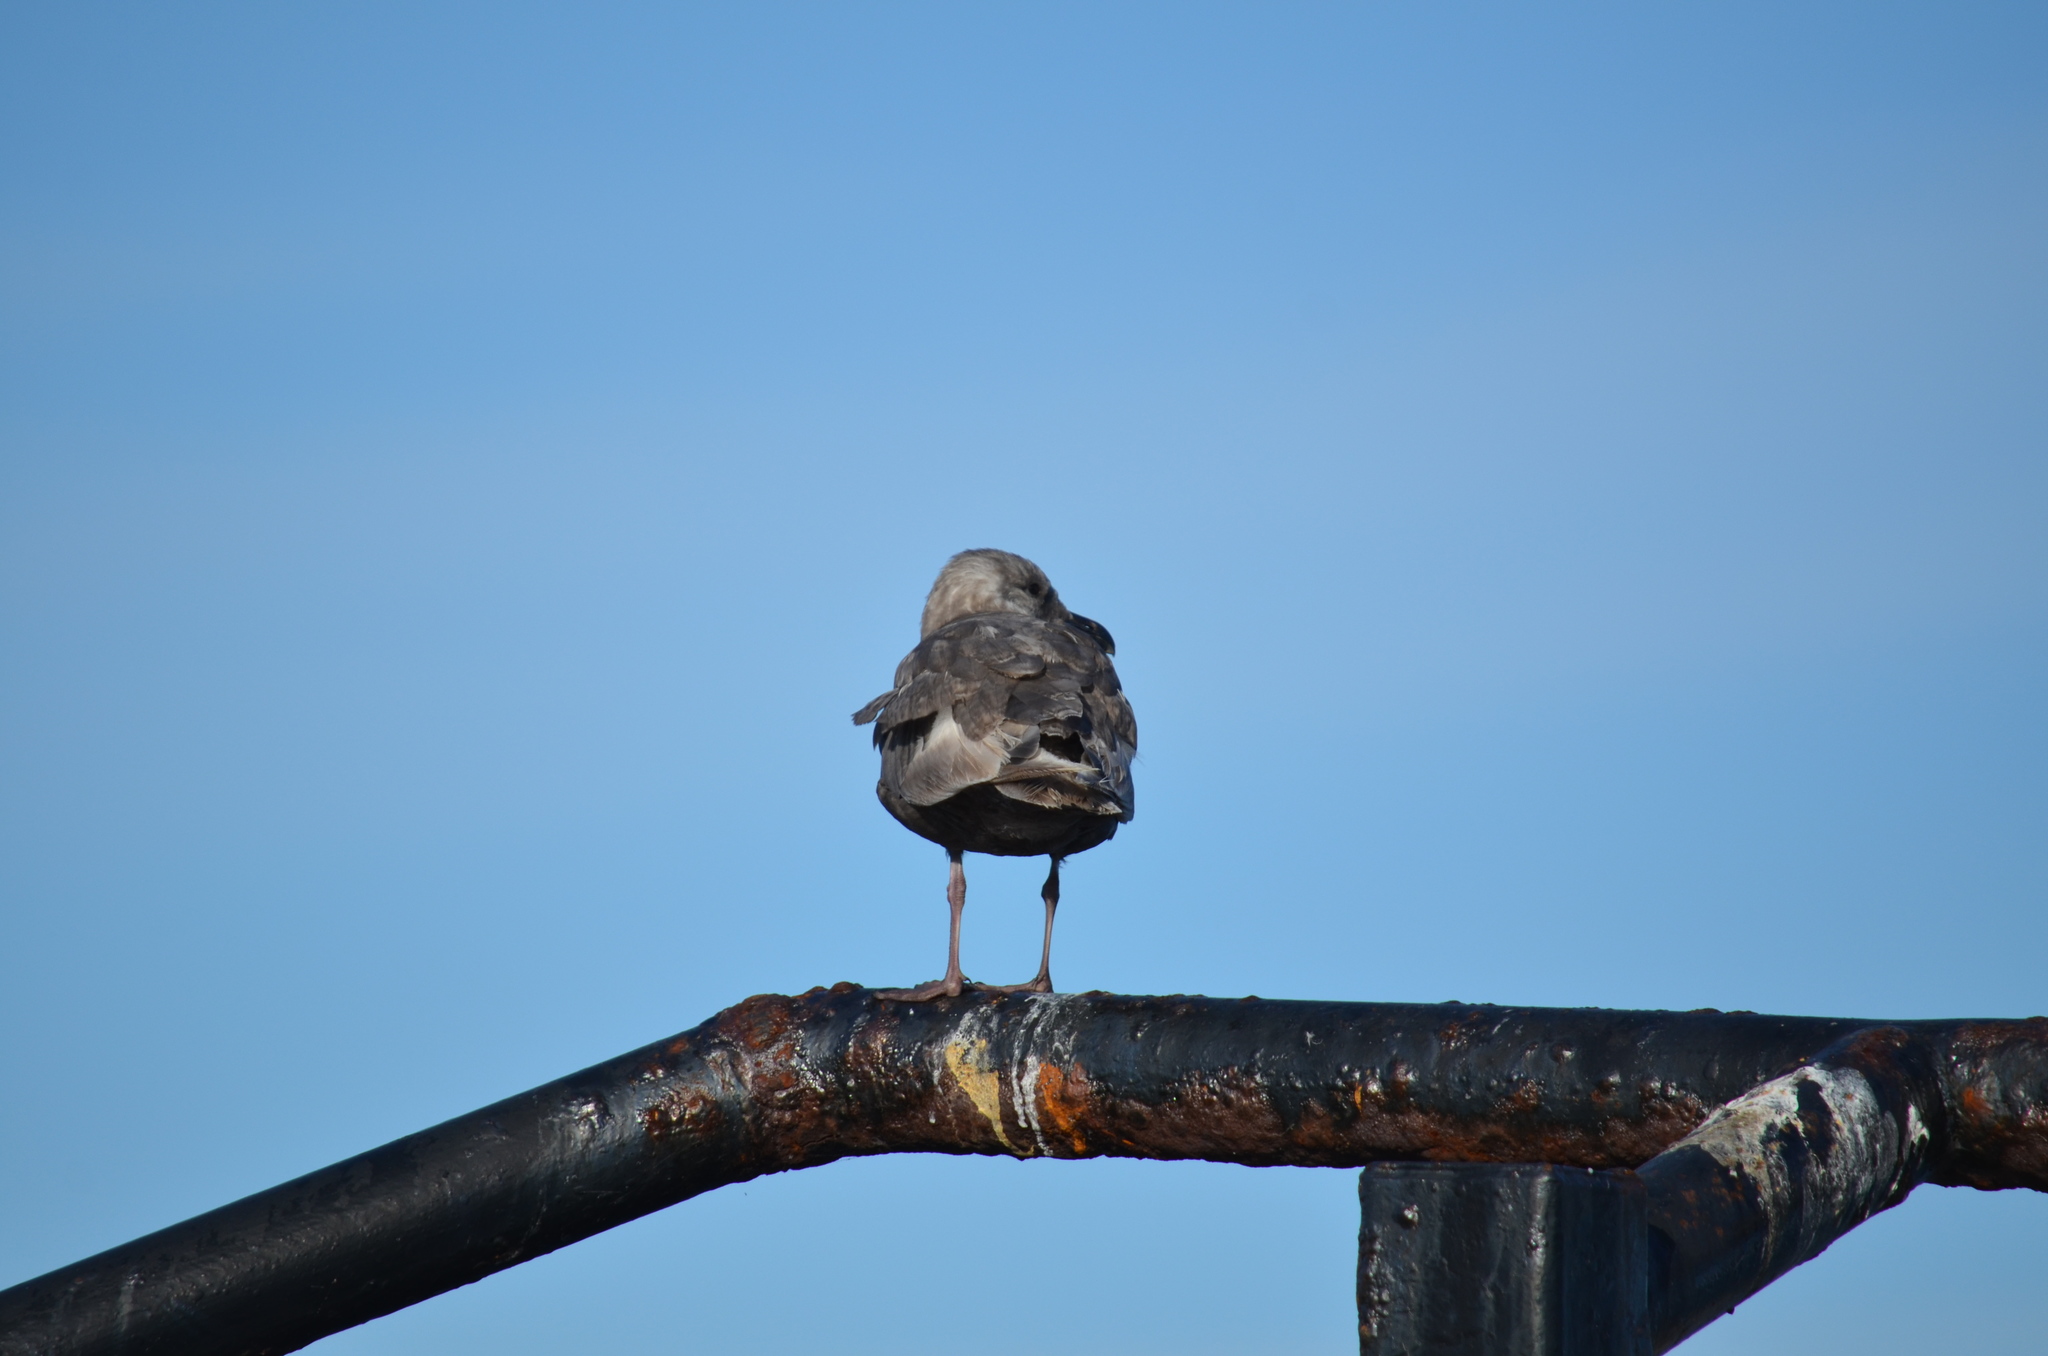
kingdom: Animalia
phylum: Chordata
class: Aves
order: Charadriiformes
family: Laridae
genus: Larus
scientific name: Larus
